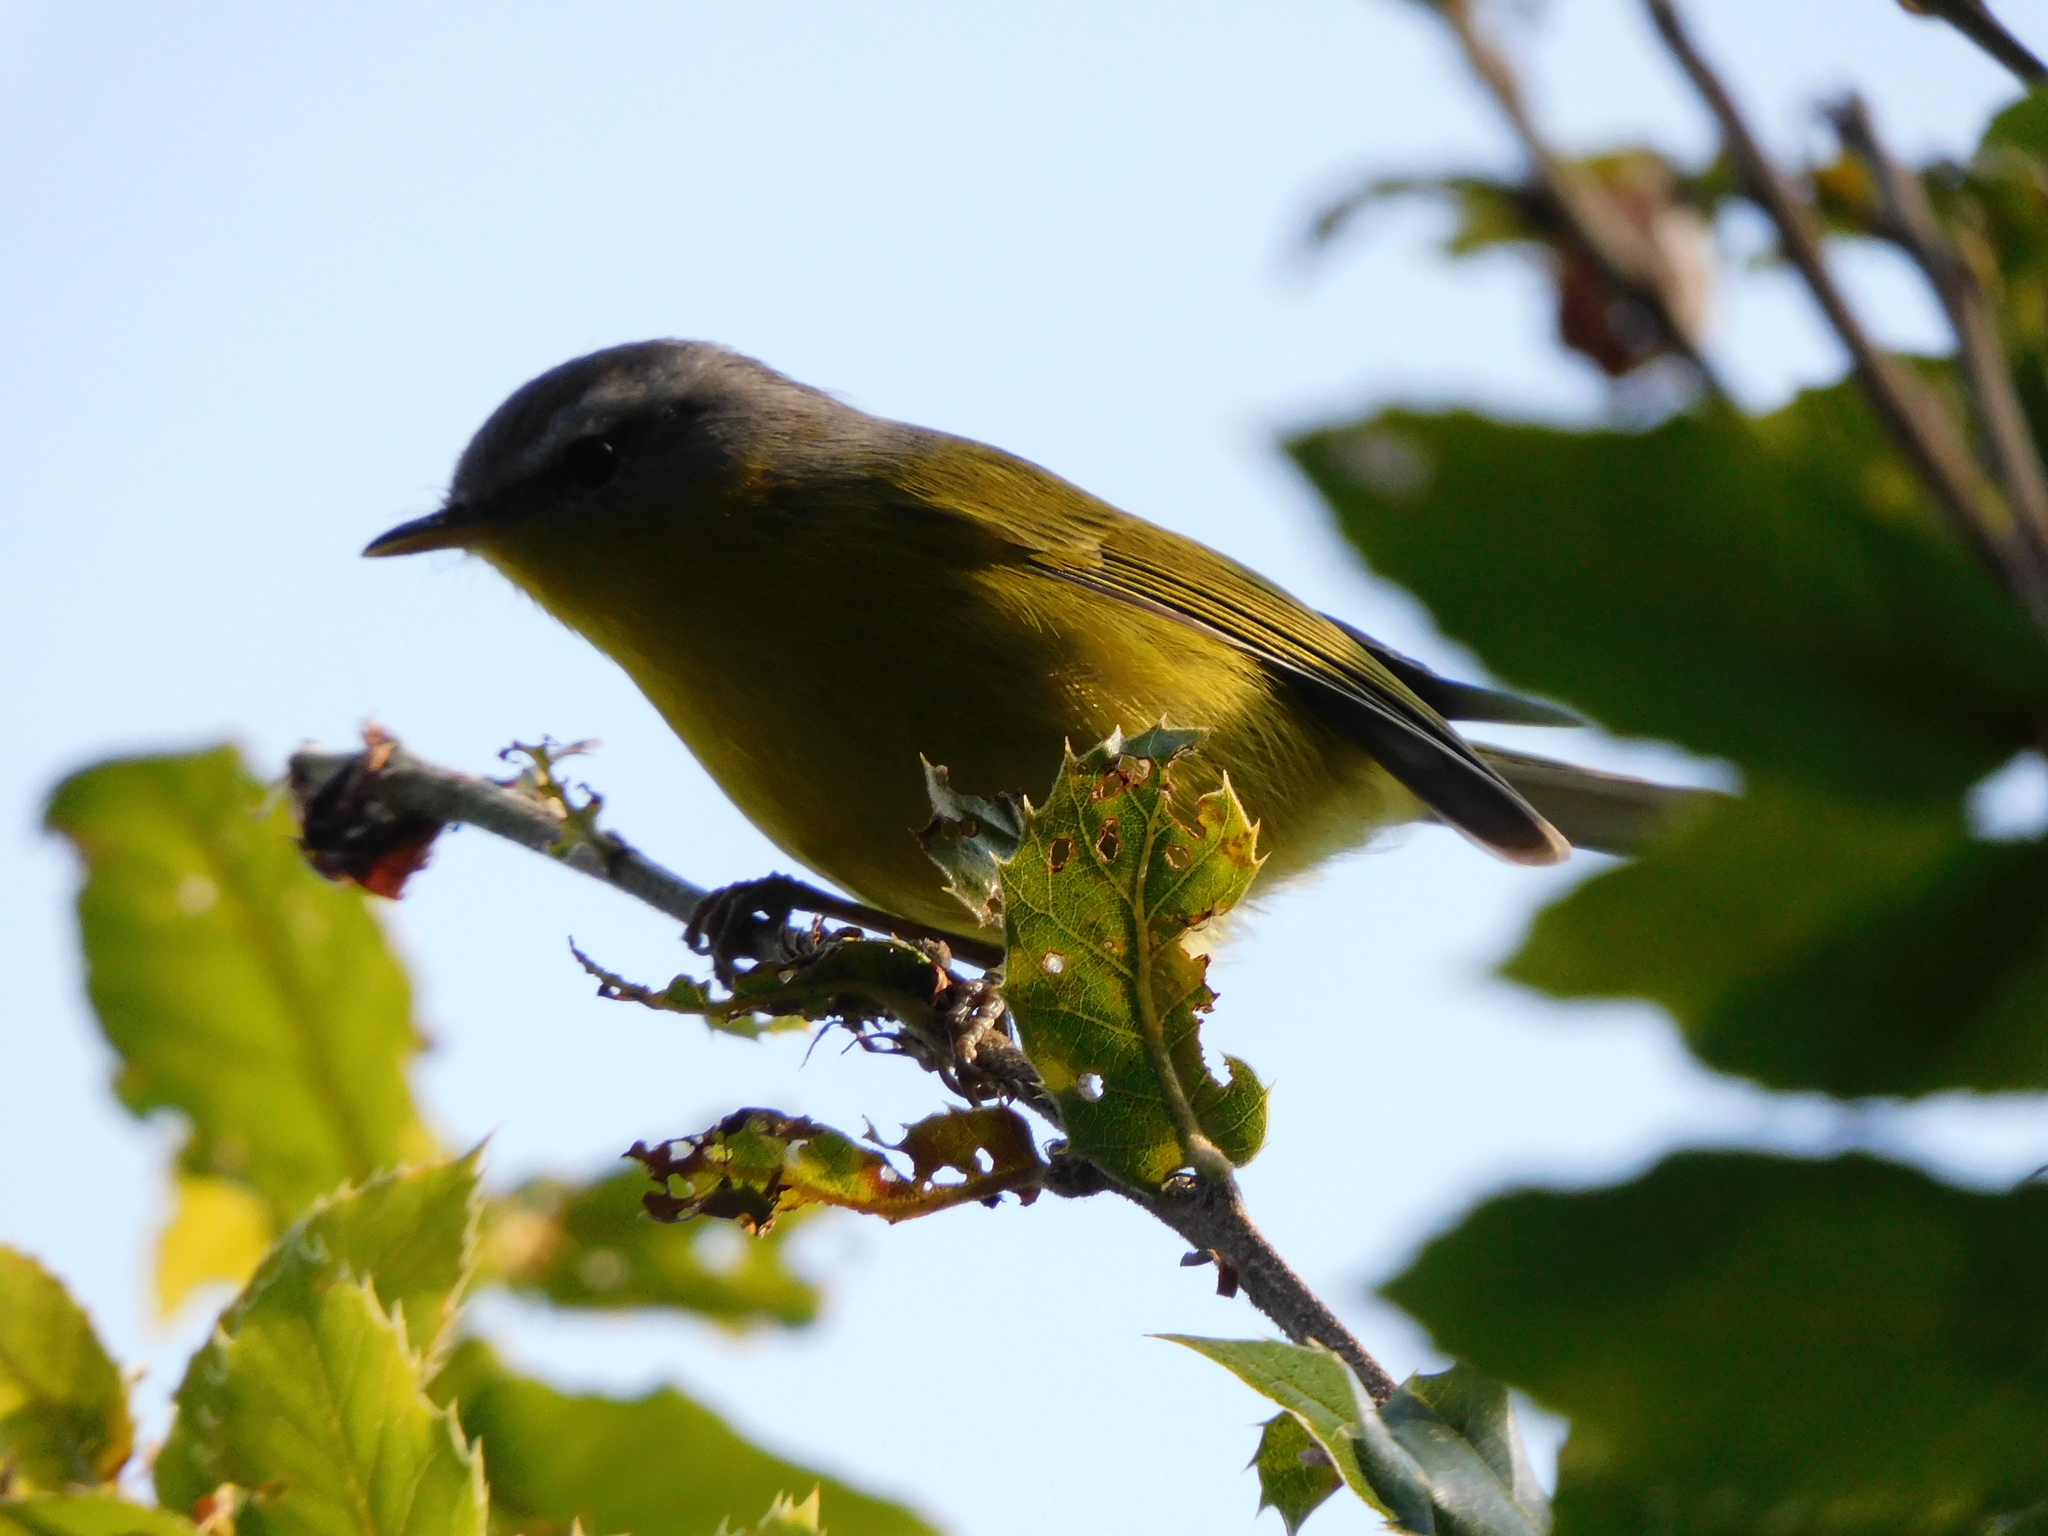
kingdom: Animalia
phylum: Chordata
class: Aves
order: Passeriformes
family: Phylloscopidae
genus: Phylloscopus
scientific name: Phylloscopus xanthoschistos
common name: Grey-hooded warbler
